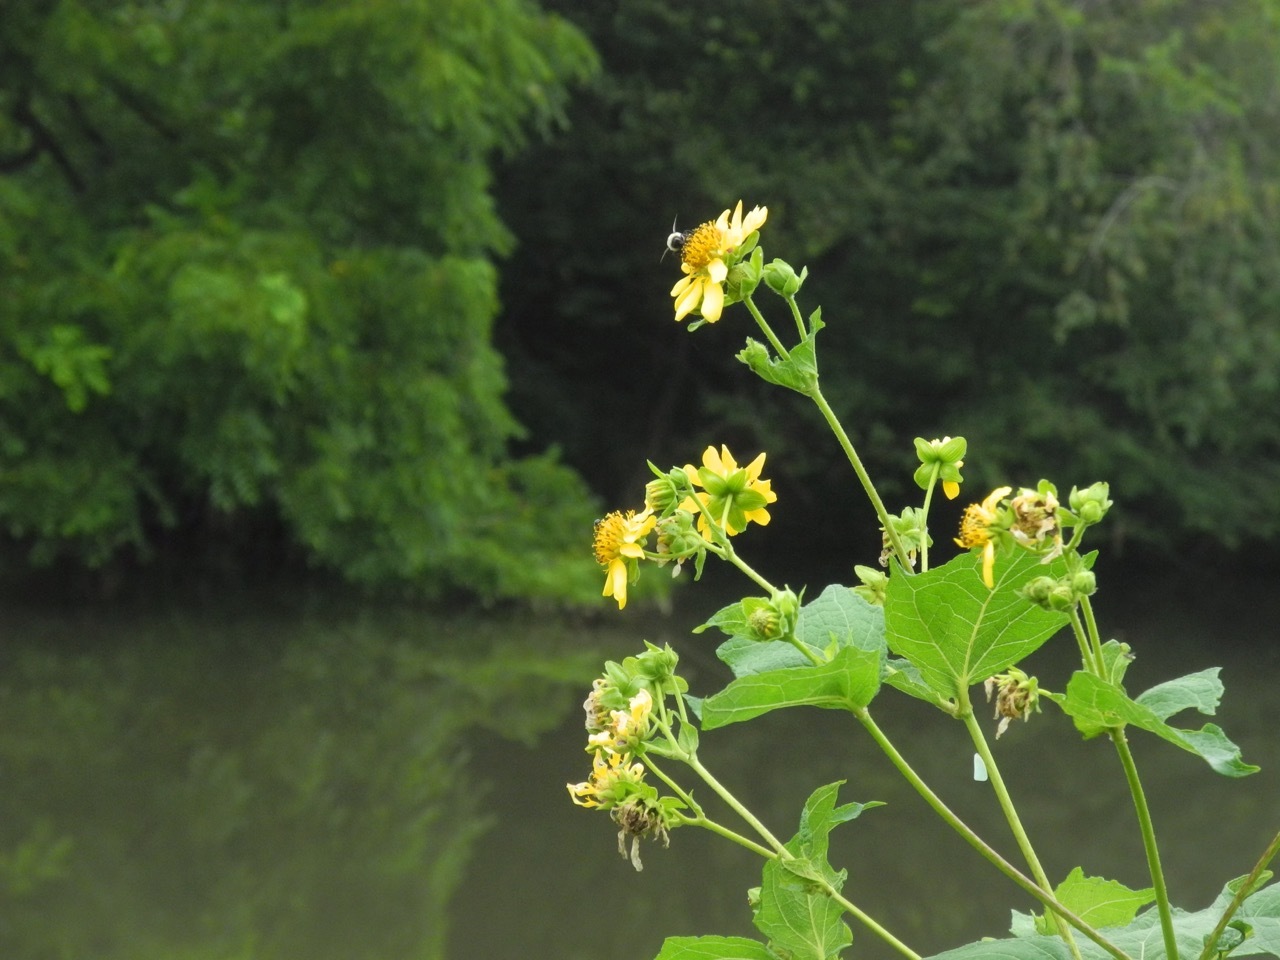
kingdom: Plantae
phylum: Tracheophyta
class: Magnoliopsida
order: Asterales
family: Asteraceae
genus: Smallanthus
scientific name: Smallanthus uvedalia
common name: Bear's-foot
